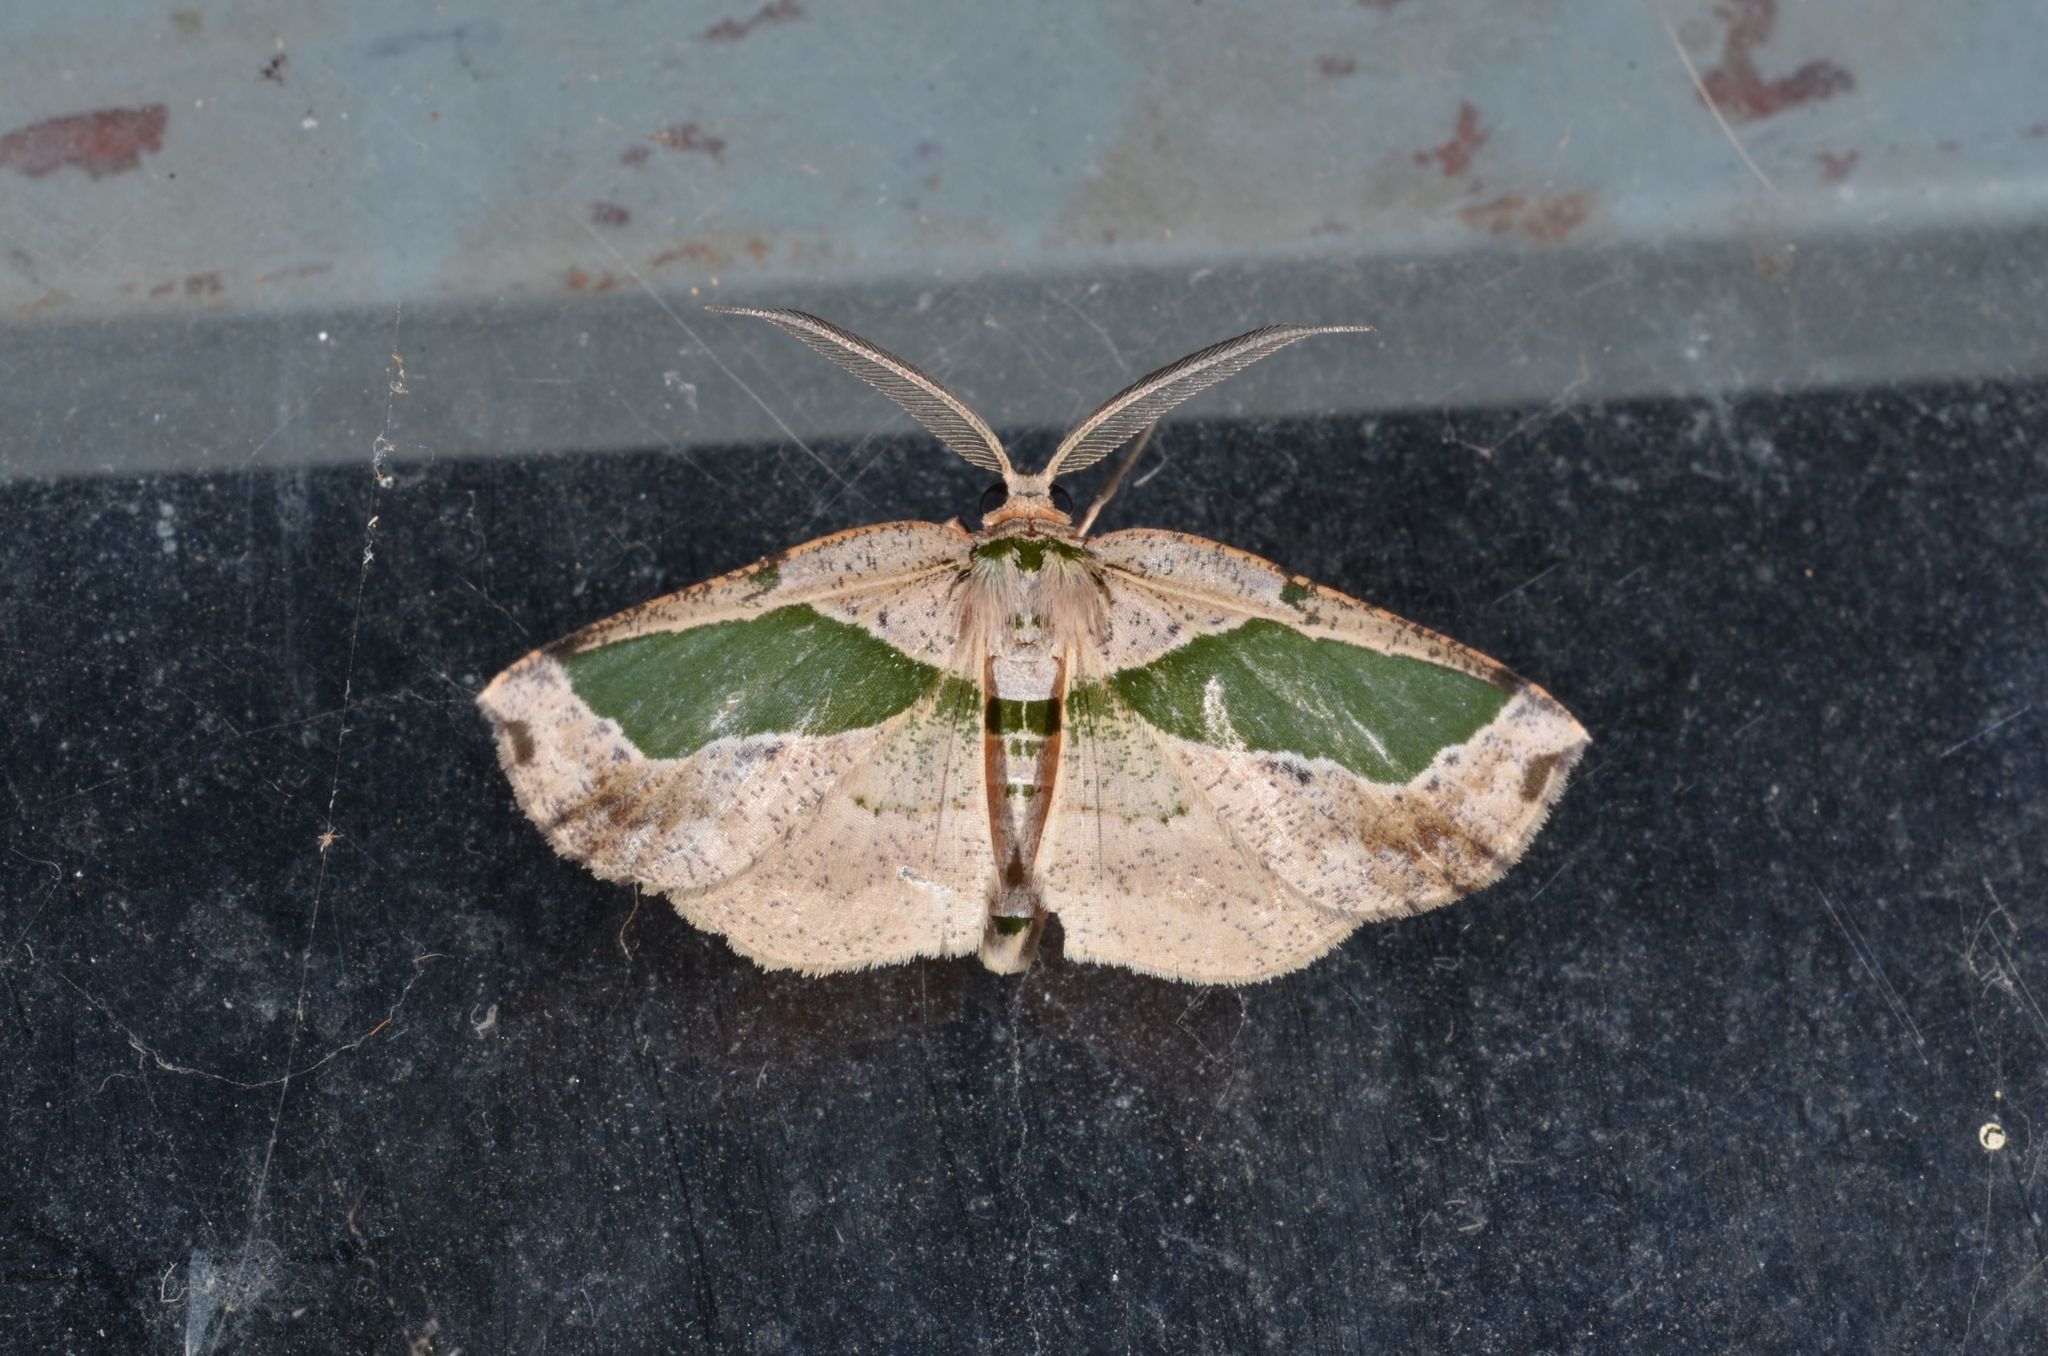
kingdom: Animalia
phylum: Arthropoda
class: Insecta
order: Lepidoptera
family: Geometridae
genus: Celenna
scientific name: Celenna callopistes
